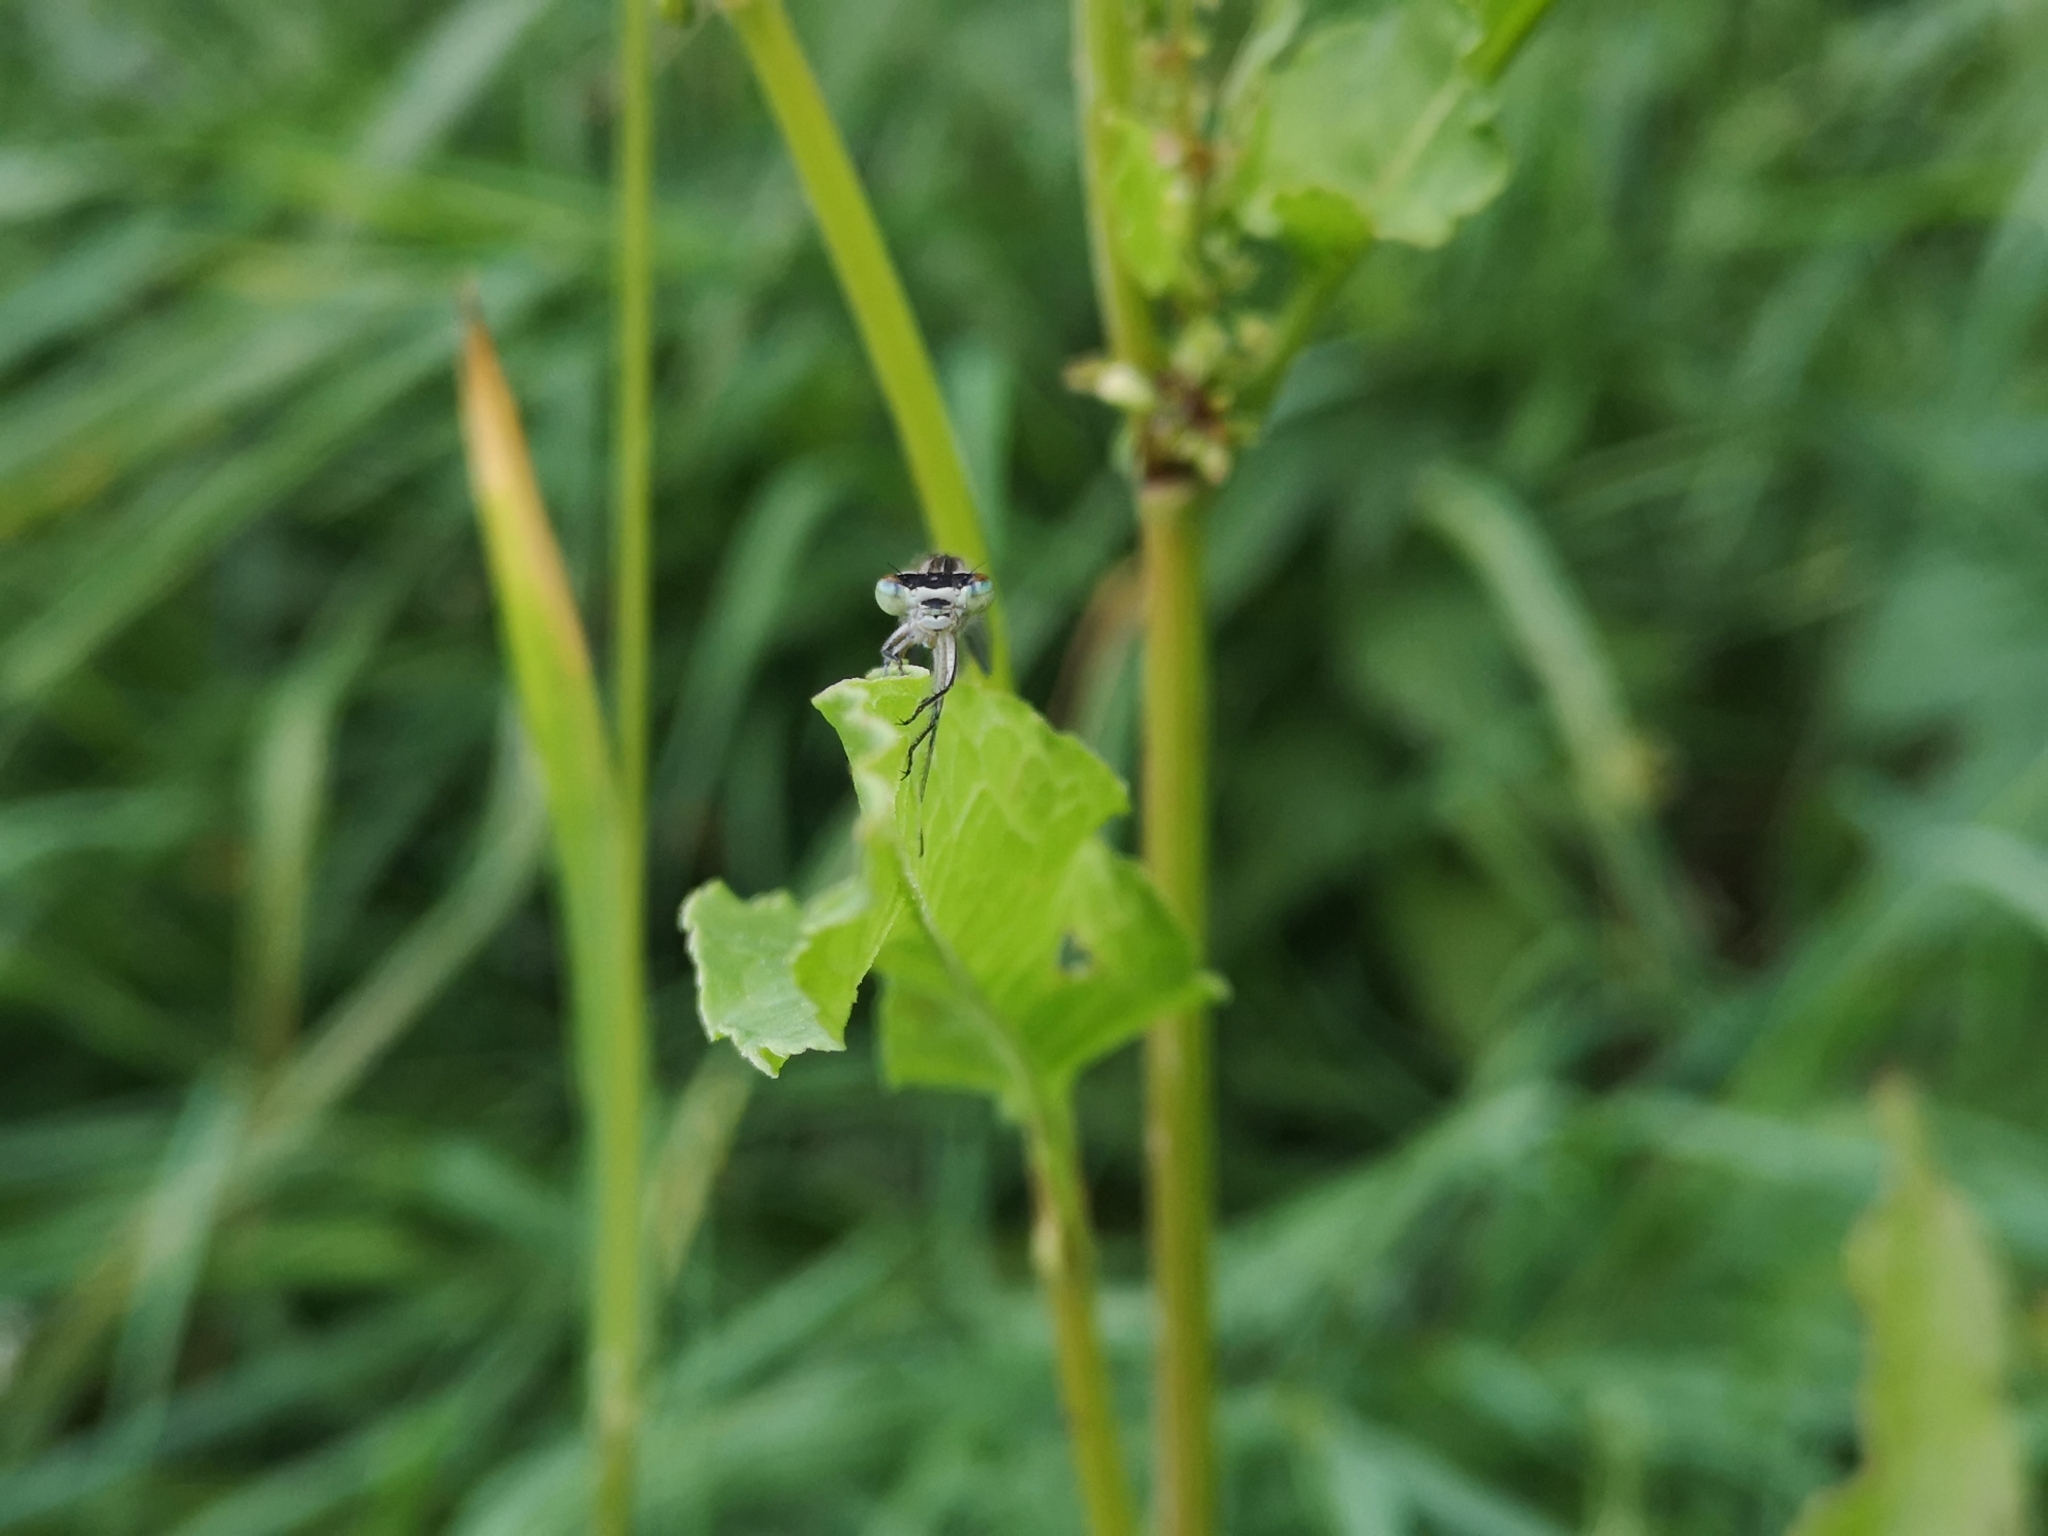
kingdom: Animalia
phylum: Arthropoda
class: Insecta
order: Odonata
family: Coenagrionidae
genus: Enallagma
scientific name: Enallagma cyathigerum
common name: Common blue damselfly
